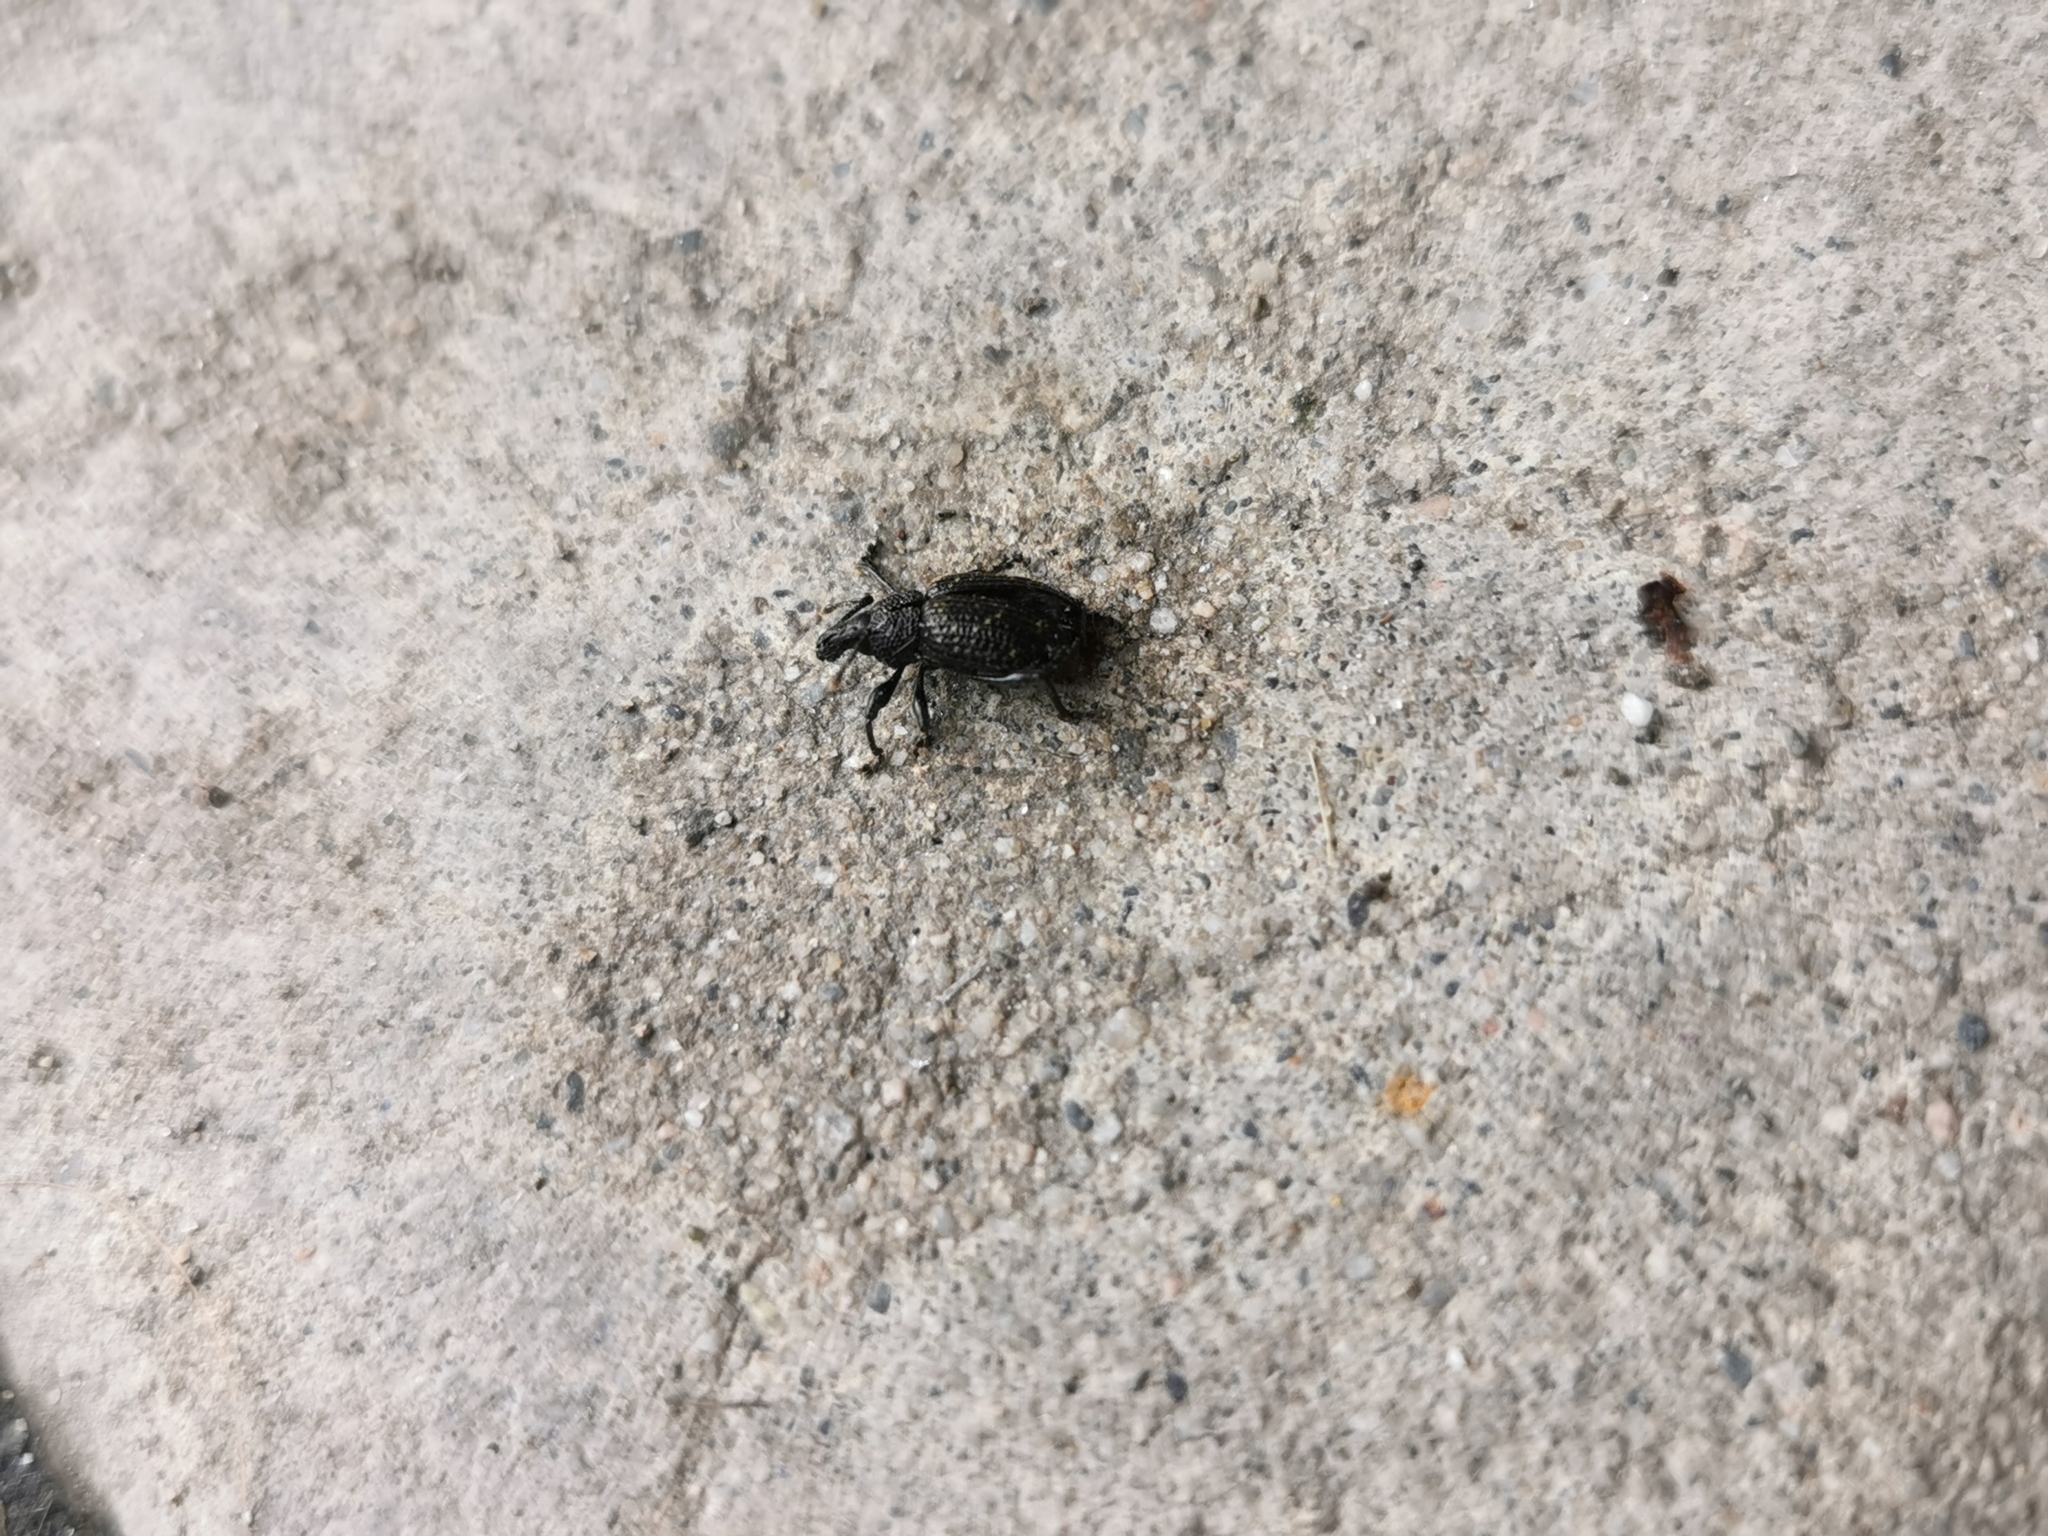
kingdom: Animalia
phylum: Arthropoda
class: Insecta
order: Coleoptera
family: Curculionidae
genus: Otiorhynchus
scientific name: Otiorhynchus sulcatus
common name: Black vine weevil
